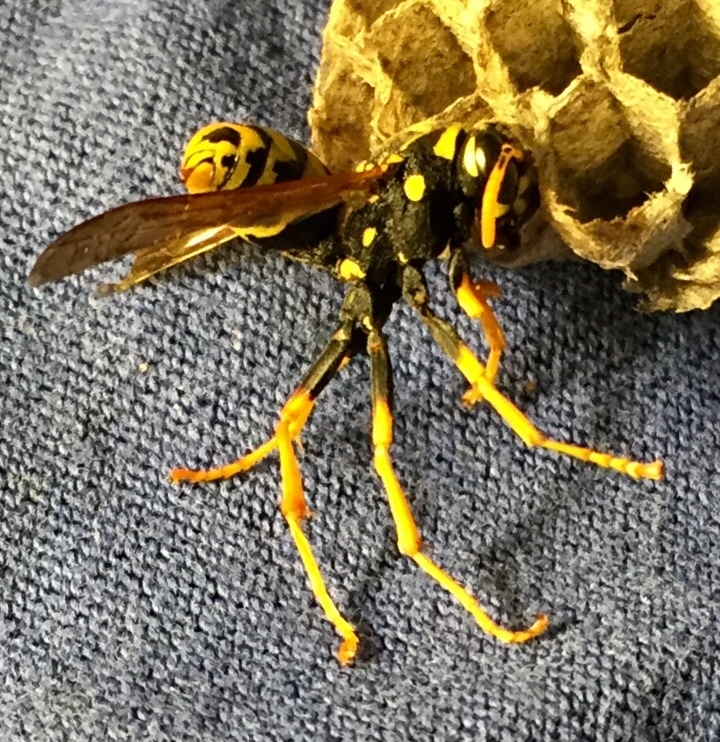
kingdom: Animalia
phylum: Arthropoda
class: Insecta
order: Hymenoptera
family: Eumenidae
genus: Polistes
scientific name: Polistes dominula
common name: Paper wasp
